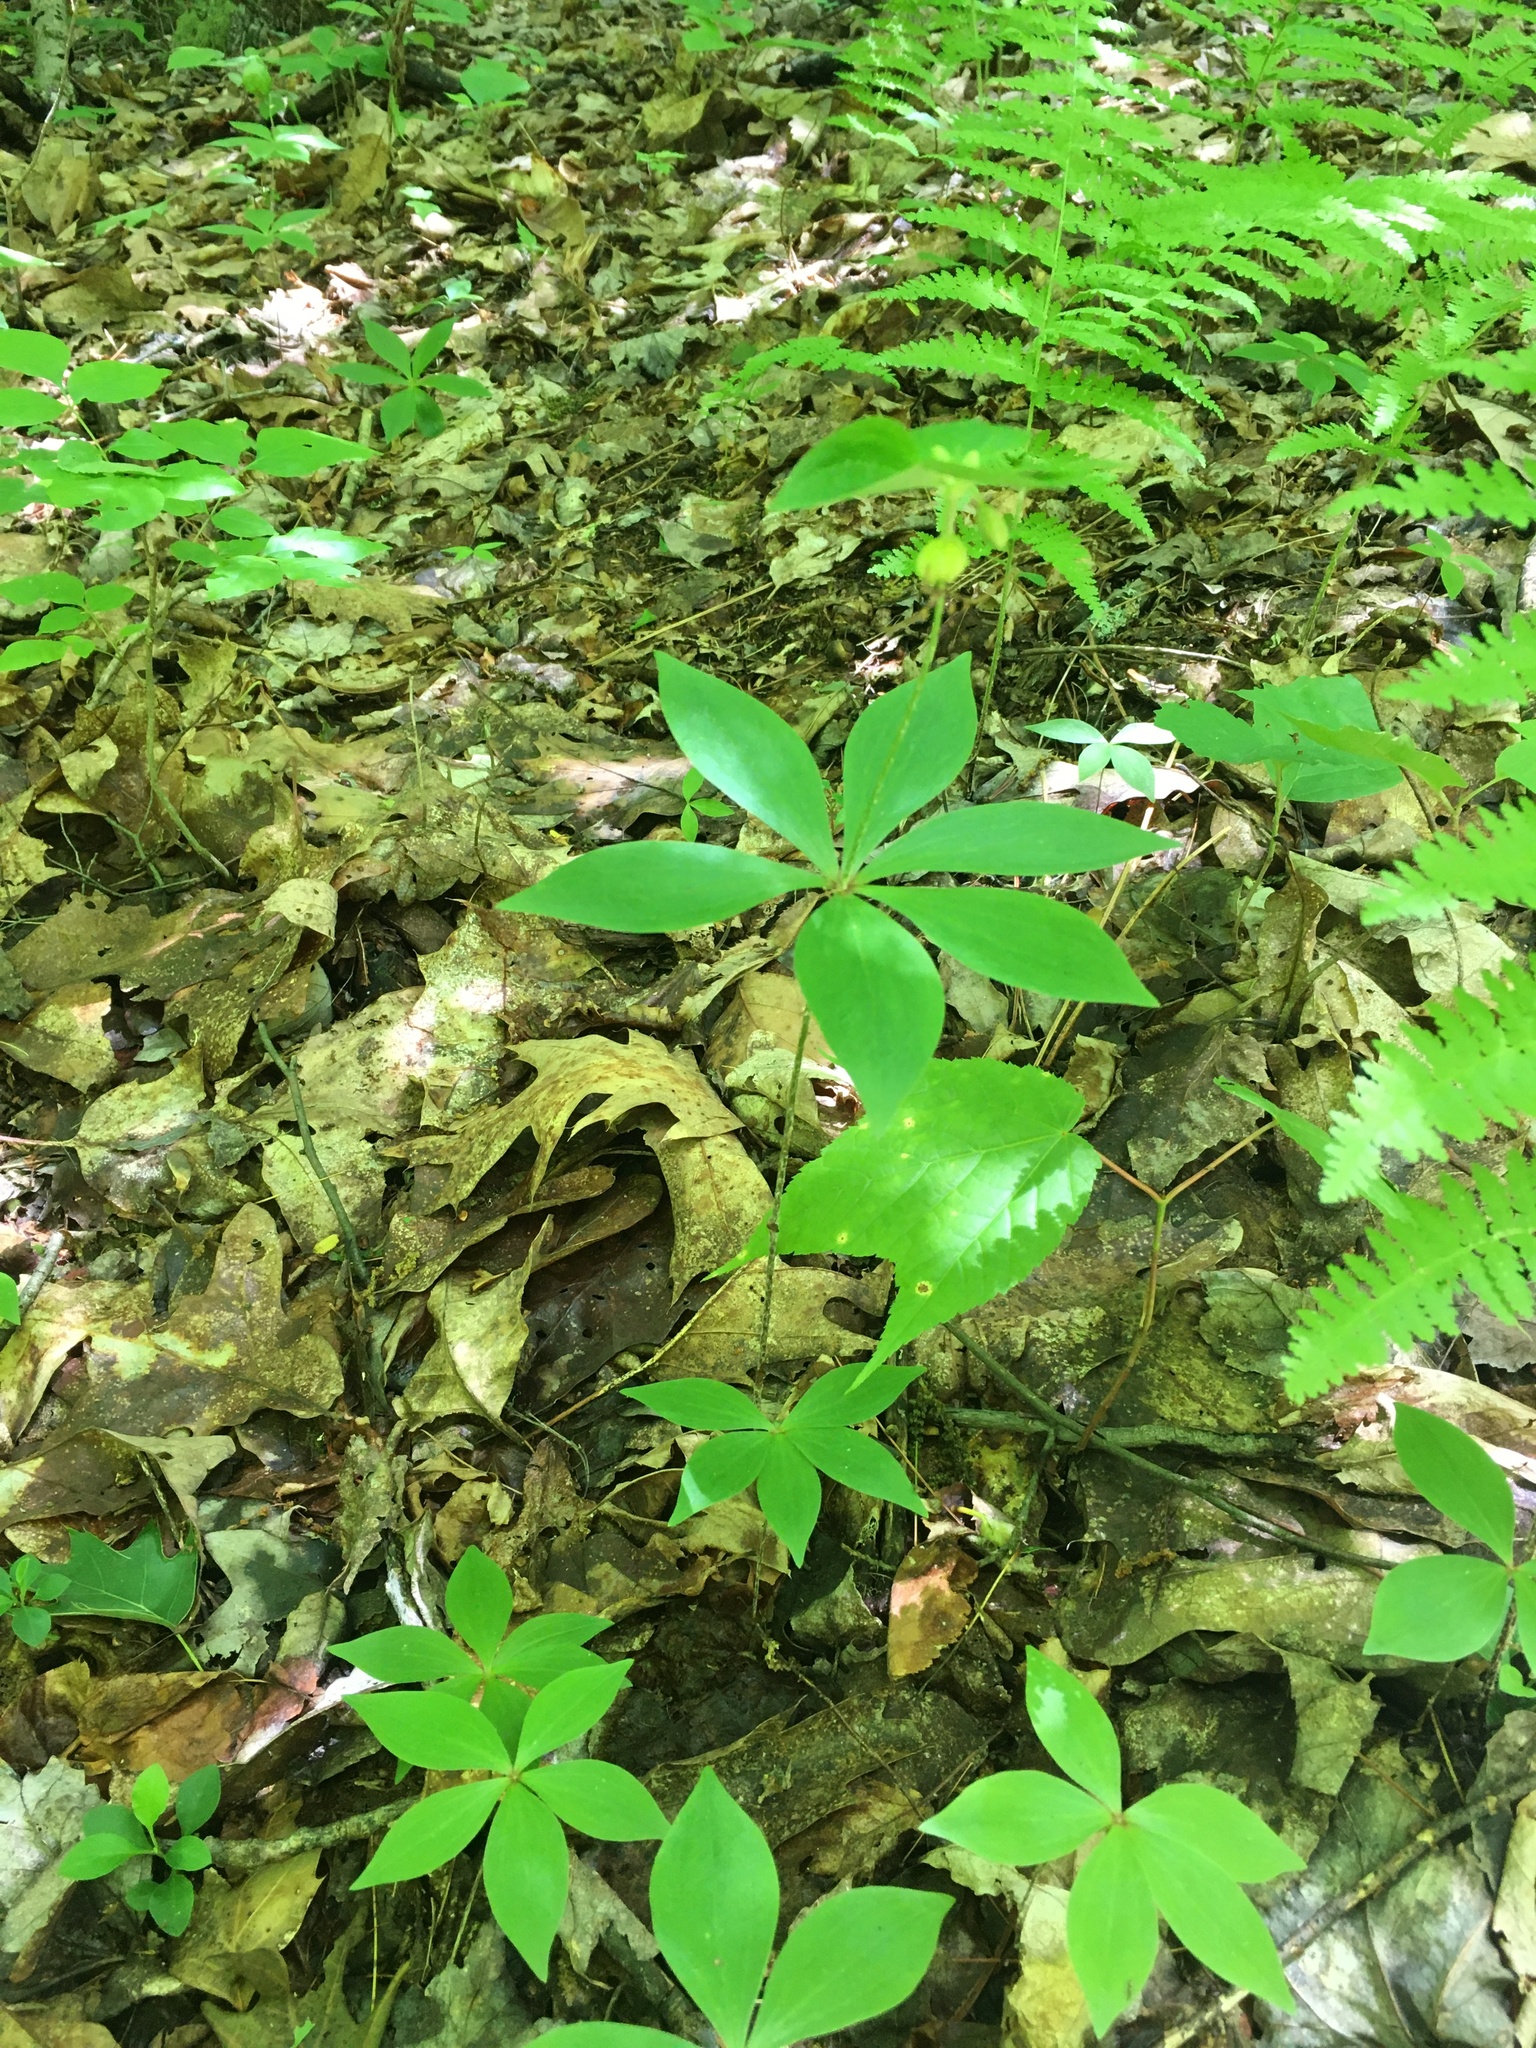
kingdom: Plantae
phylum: Tracheophyta
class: Liliopsida
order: Liliales
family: Liliaceae
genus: Medeola
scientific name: Medeola virginiana
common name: Indian cucumber-root
